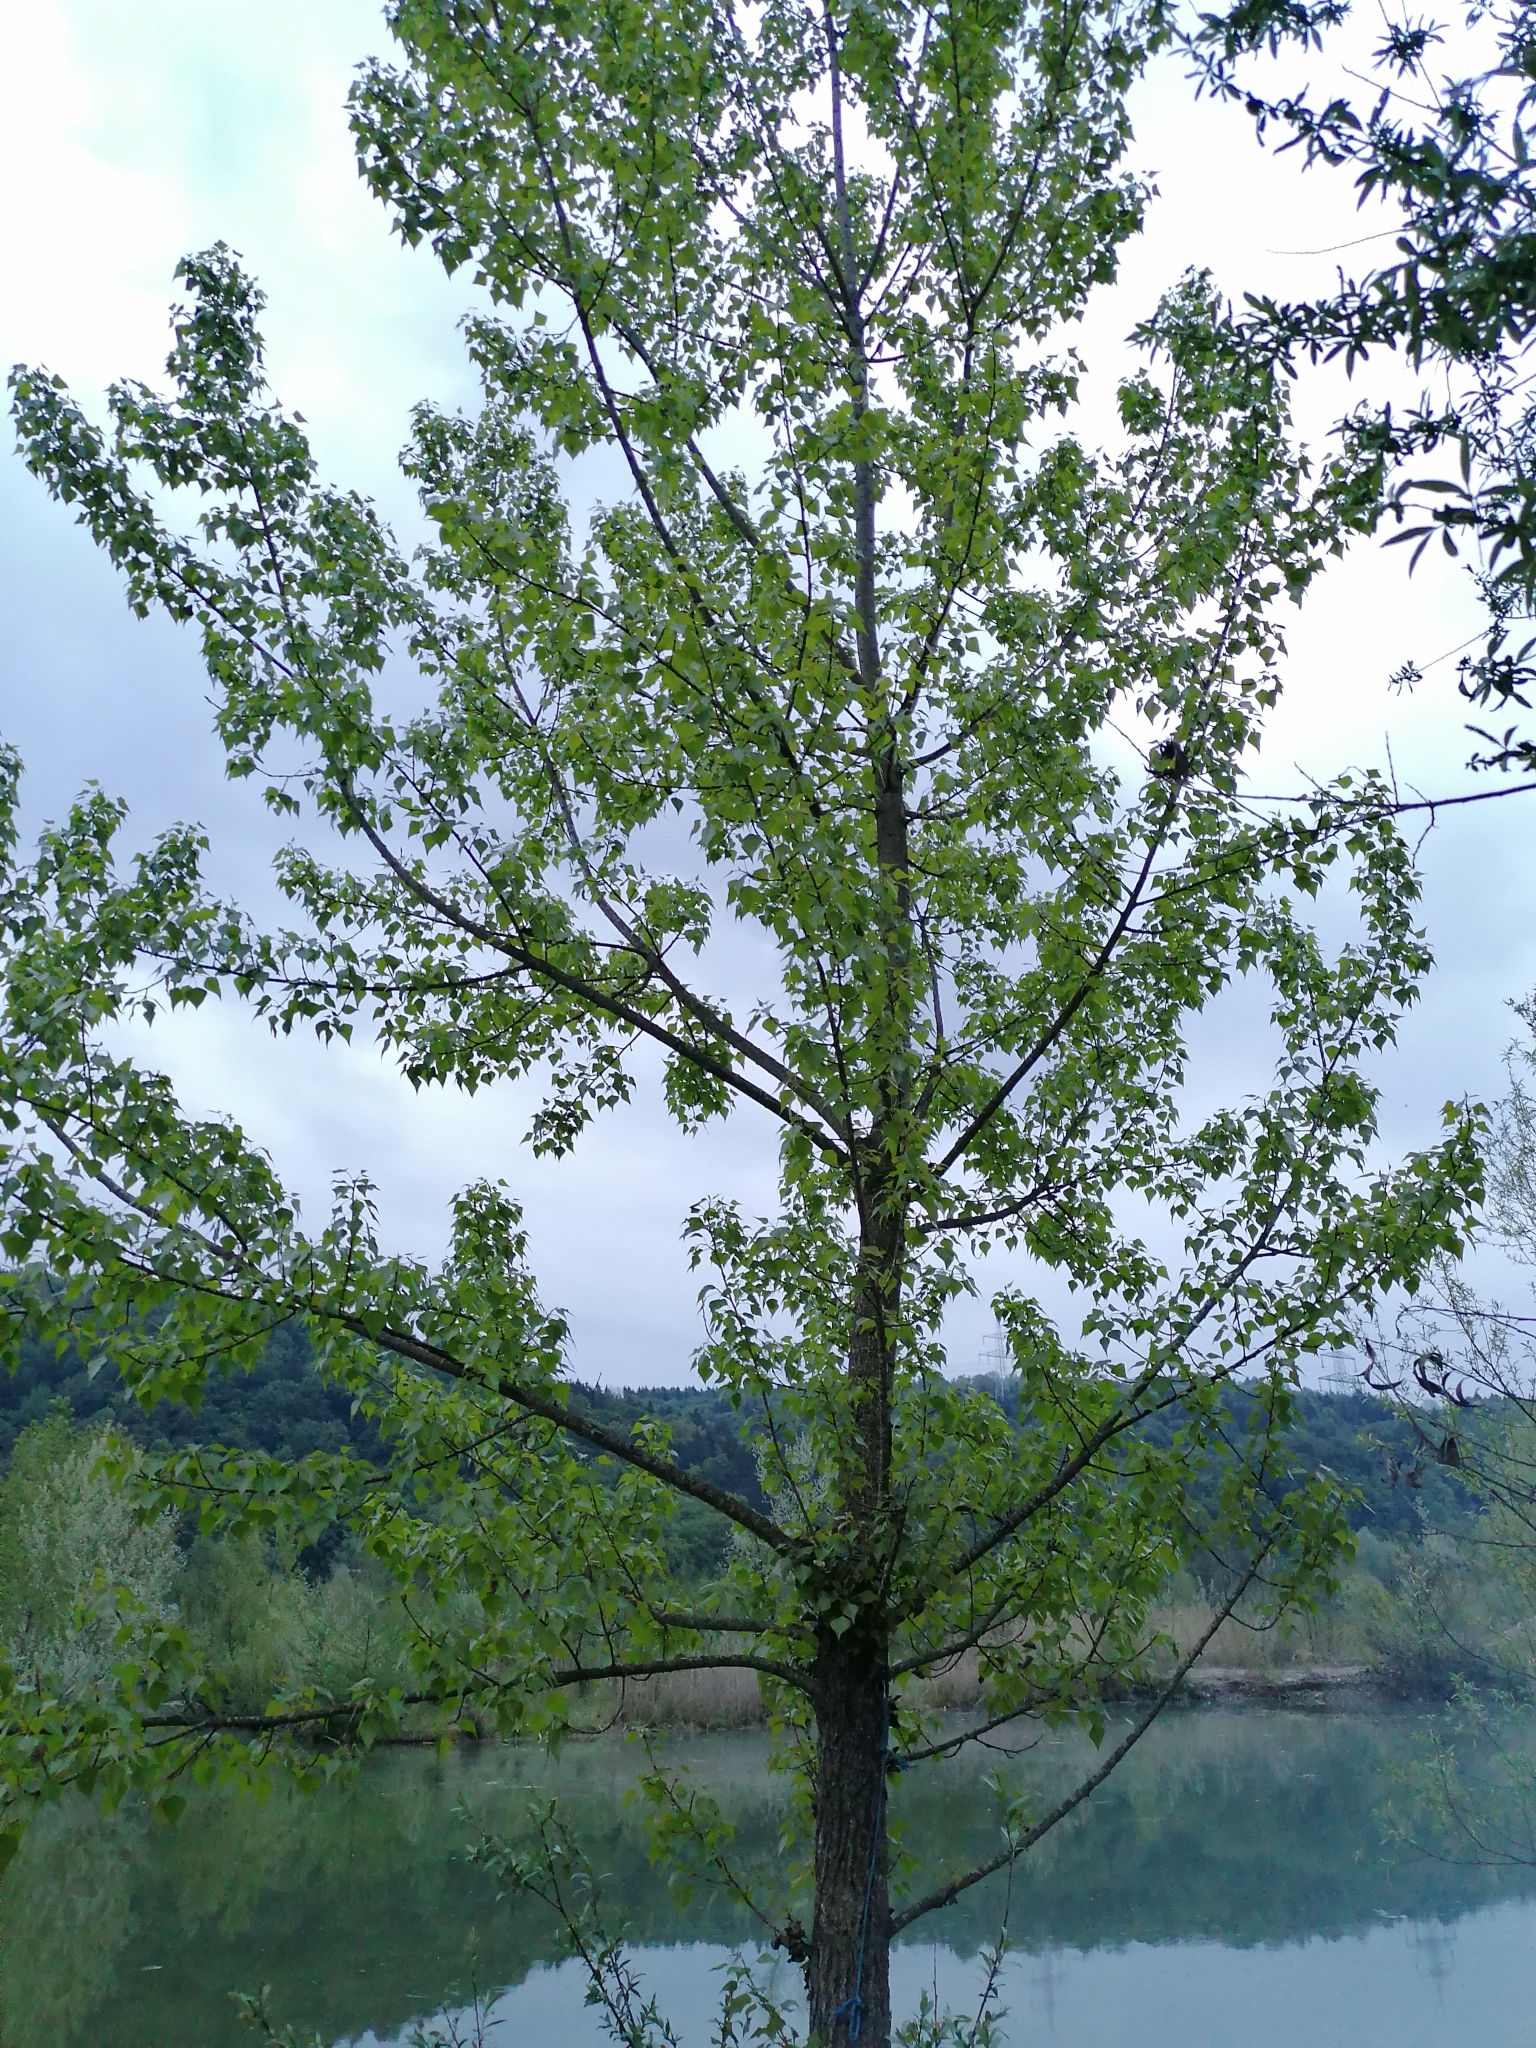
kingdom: Plantae
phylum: Tracheophyta
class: Magnoliopsida
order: Malpighiales
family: Salicaceae
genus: Populus
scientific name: Populus nigra
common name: Black poplar
